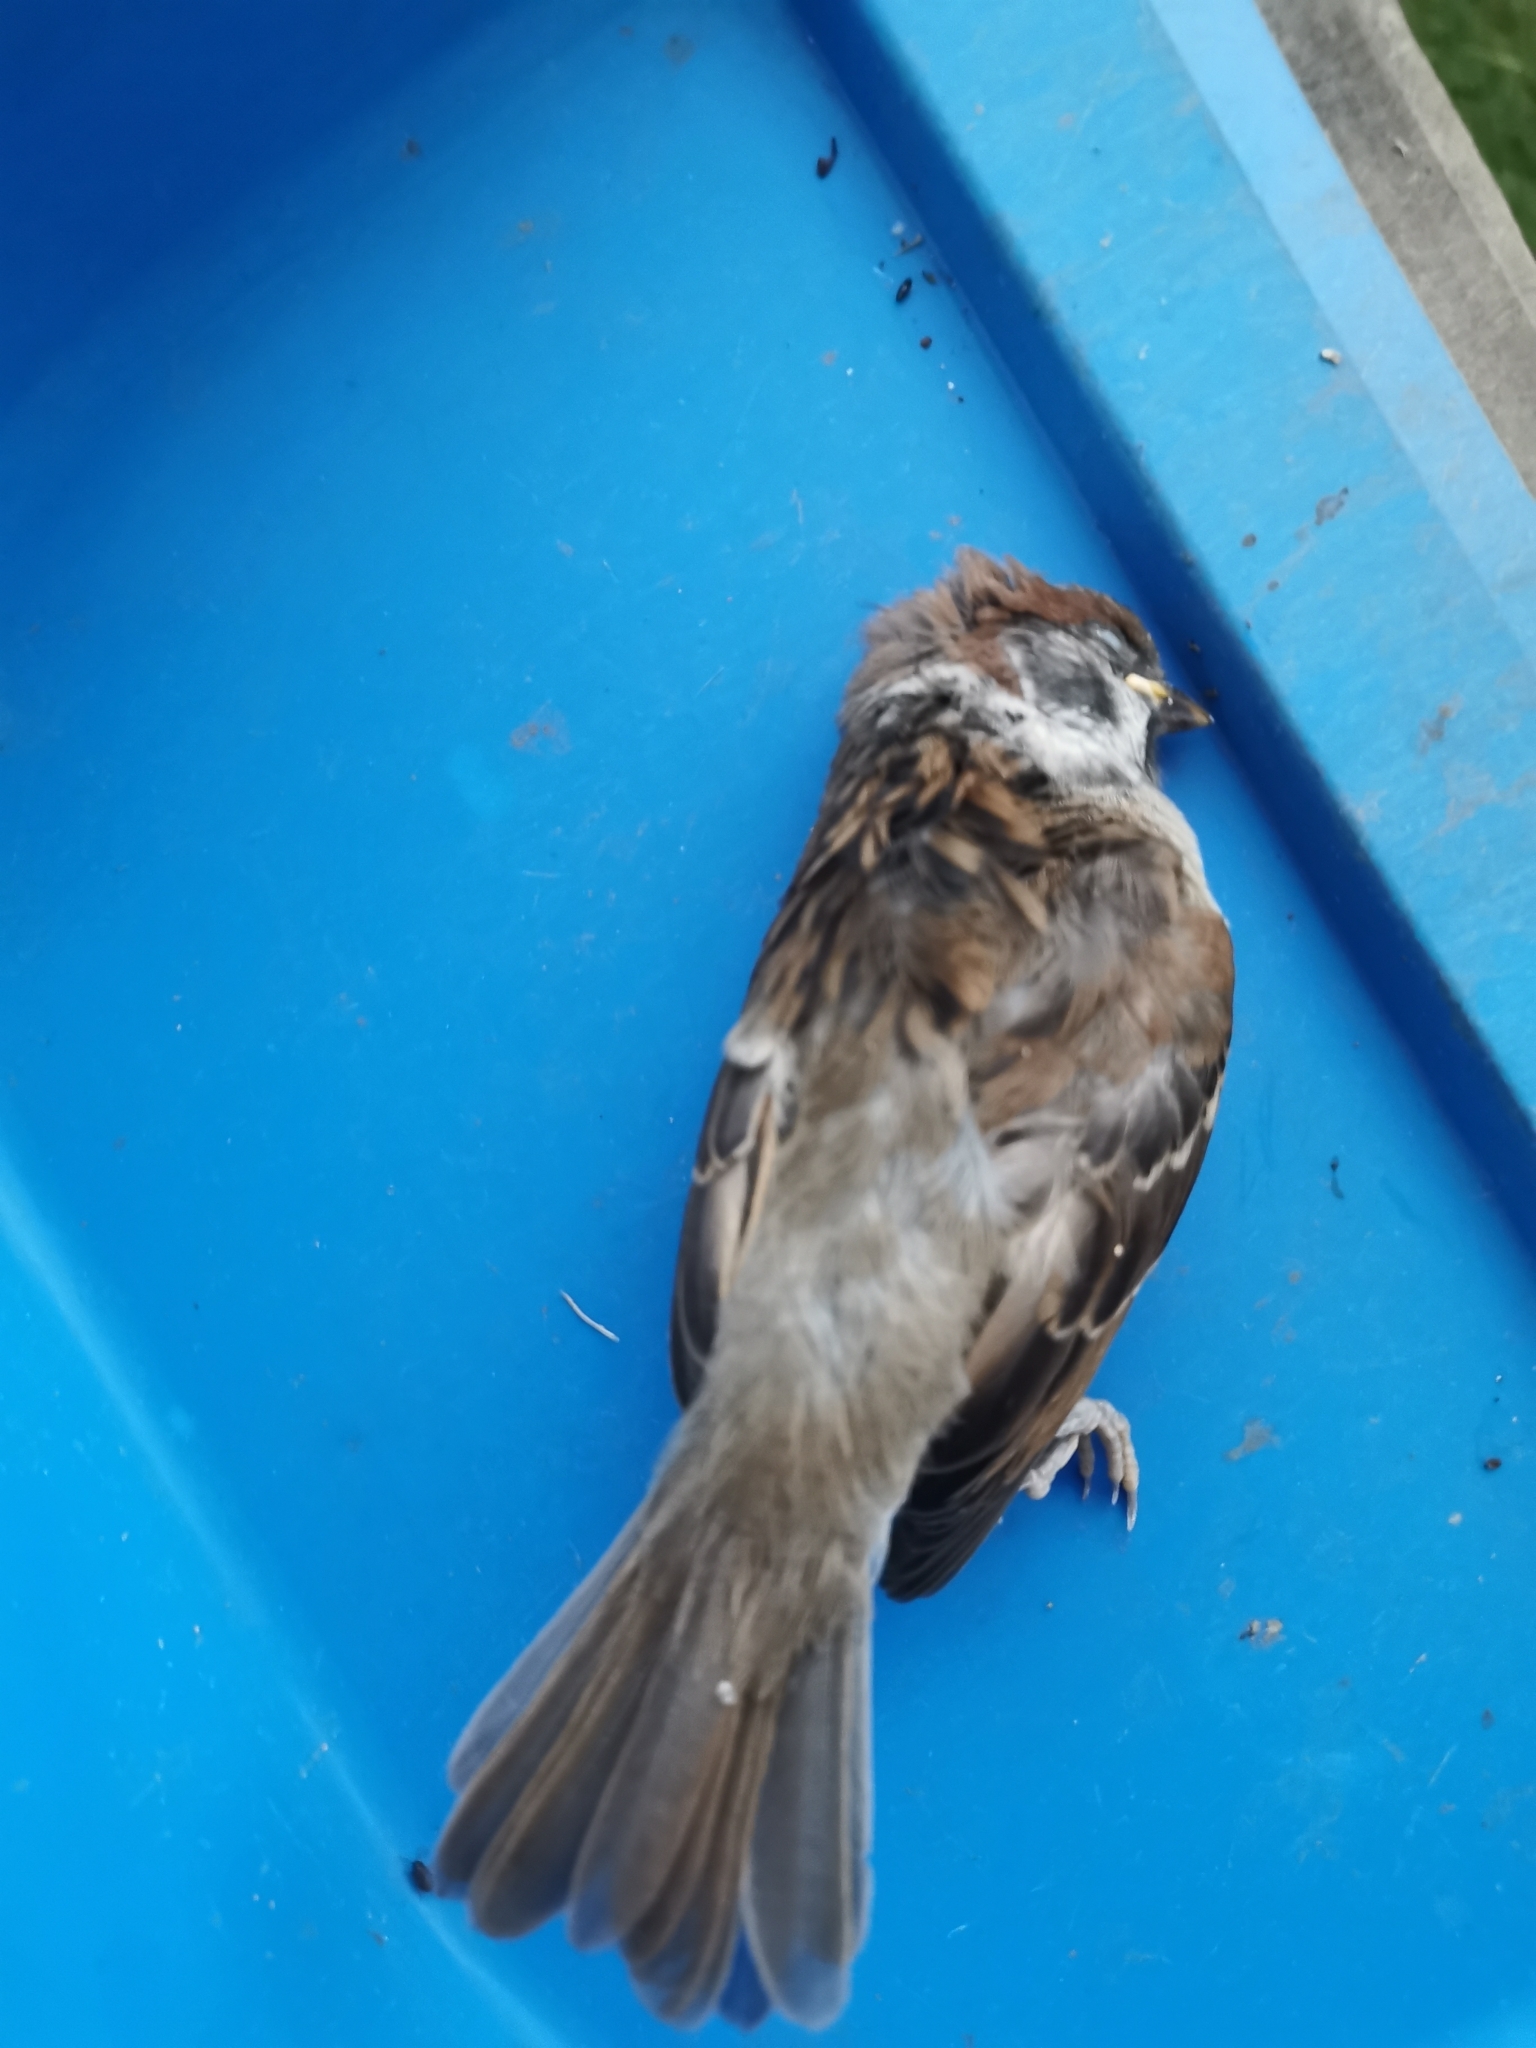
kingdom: Animalia
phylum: Chordata
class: Aves
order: Passeriformes
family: Passeridae
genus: Passer
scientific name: Passer montanus
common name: Eurasian tree sparrow
